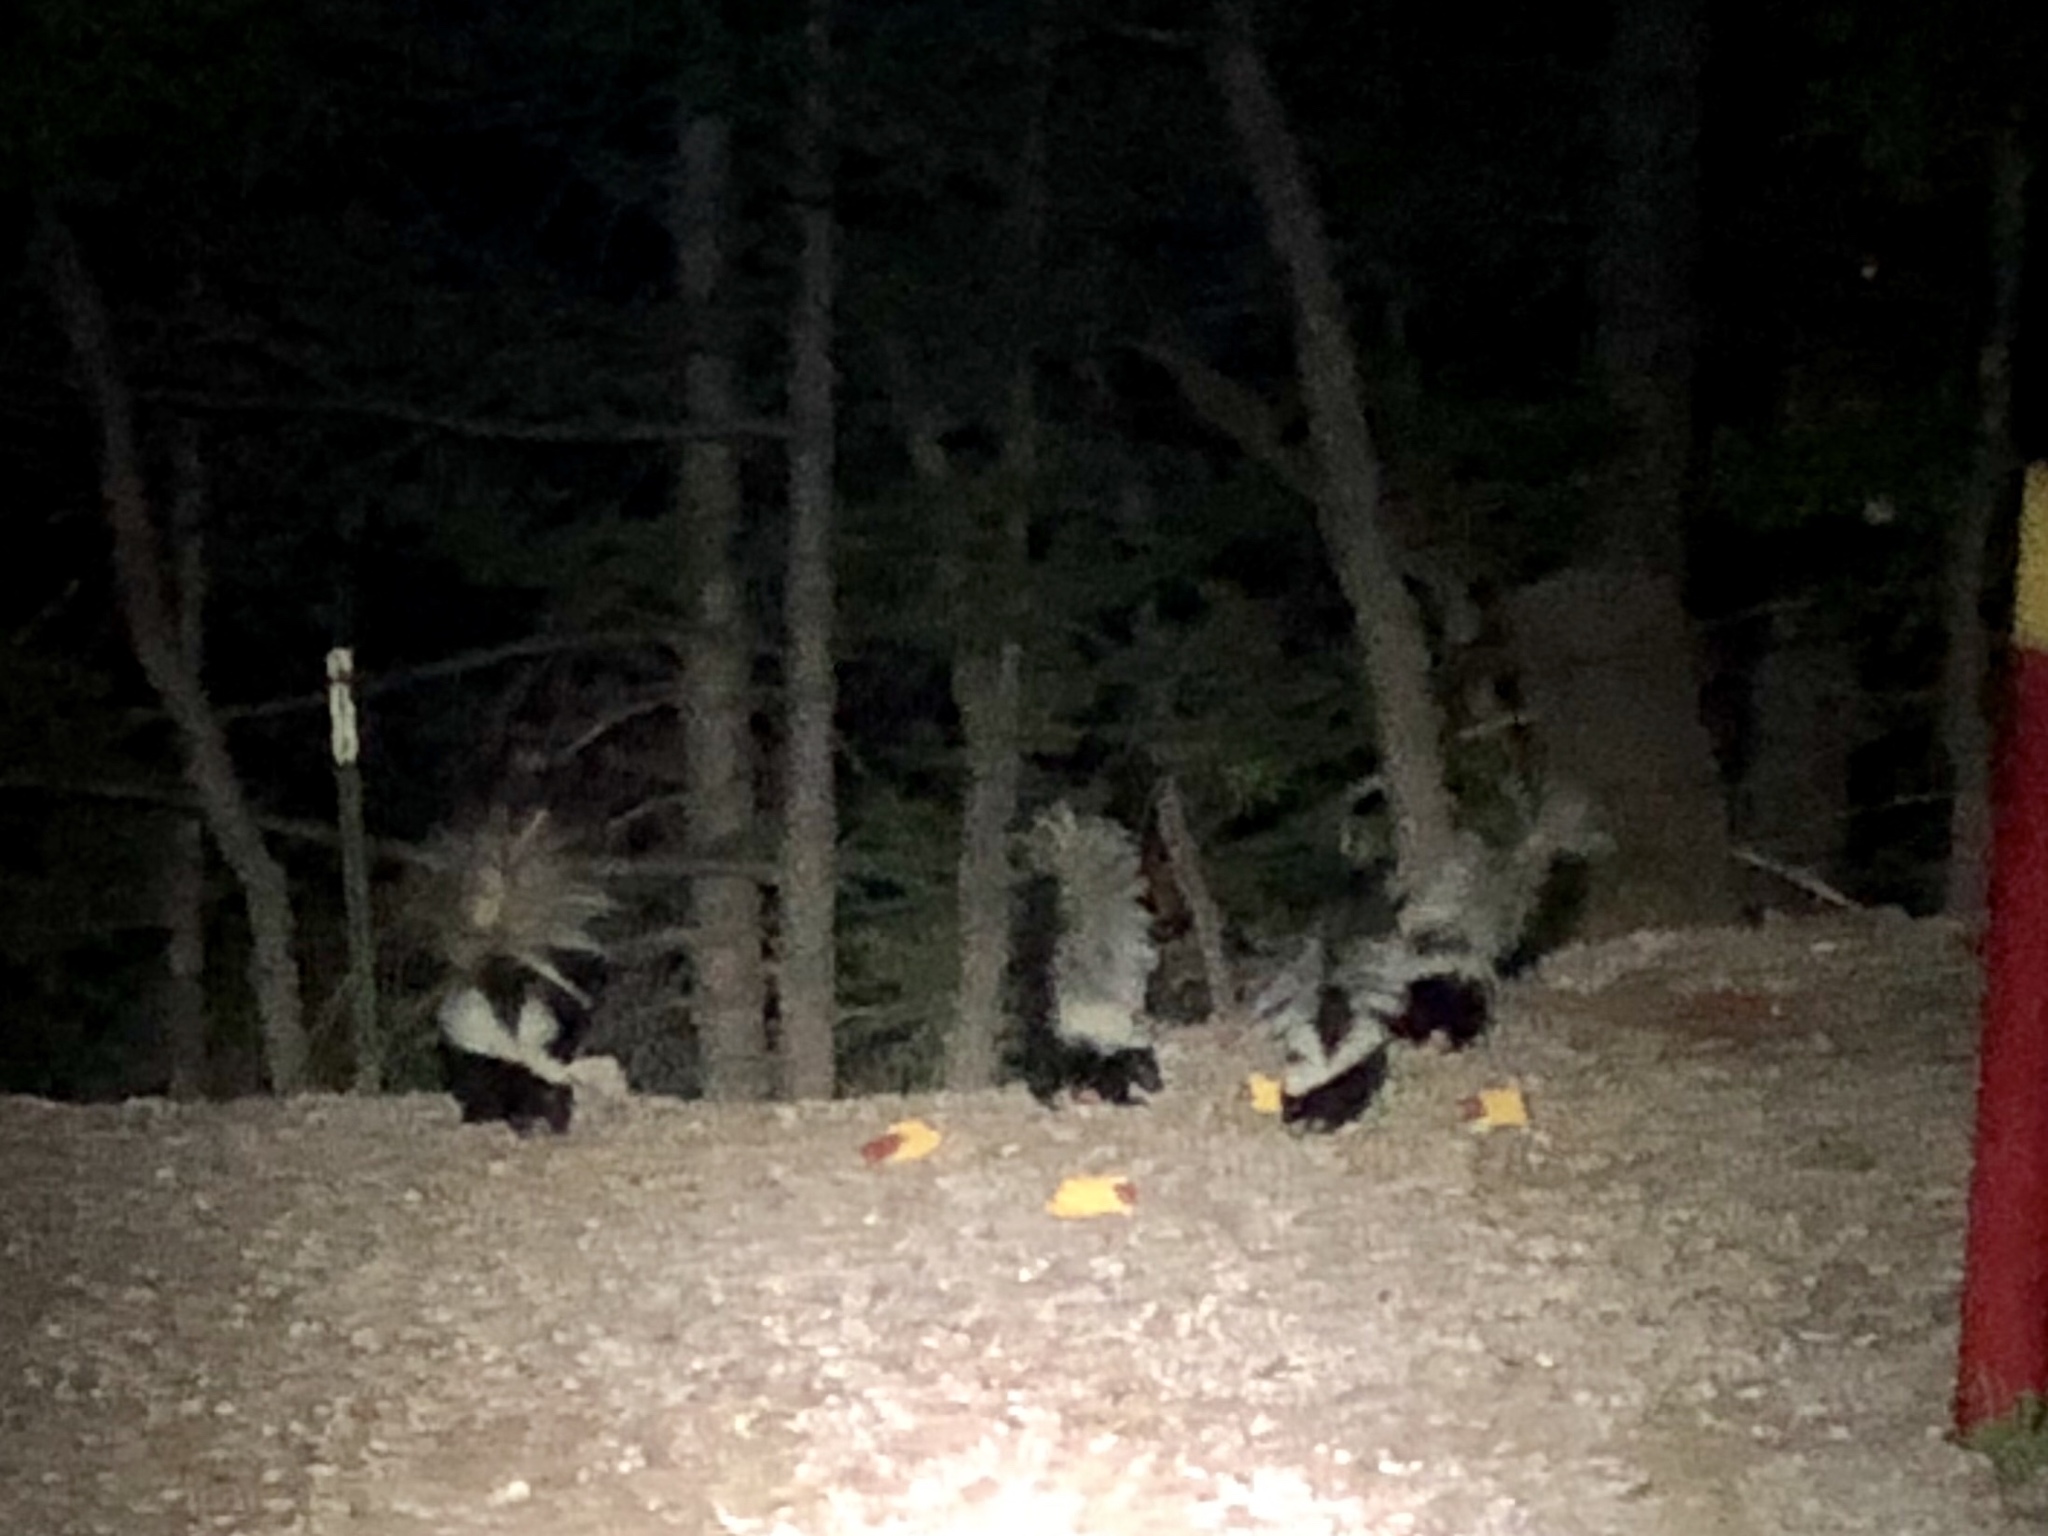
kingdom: Animalia
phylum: Chordata
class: Mammalia
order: Carnivora
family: Mephitidae
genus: Mephitis
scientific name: Mephitis mephitis
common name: Striped skunk
